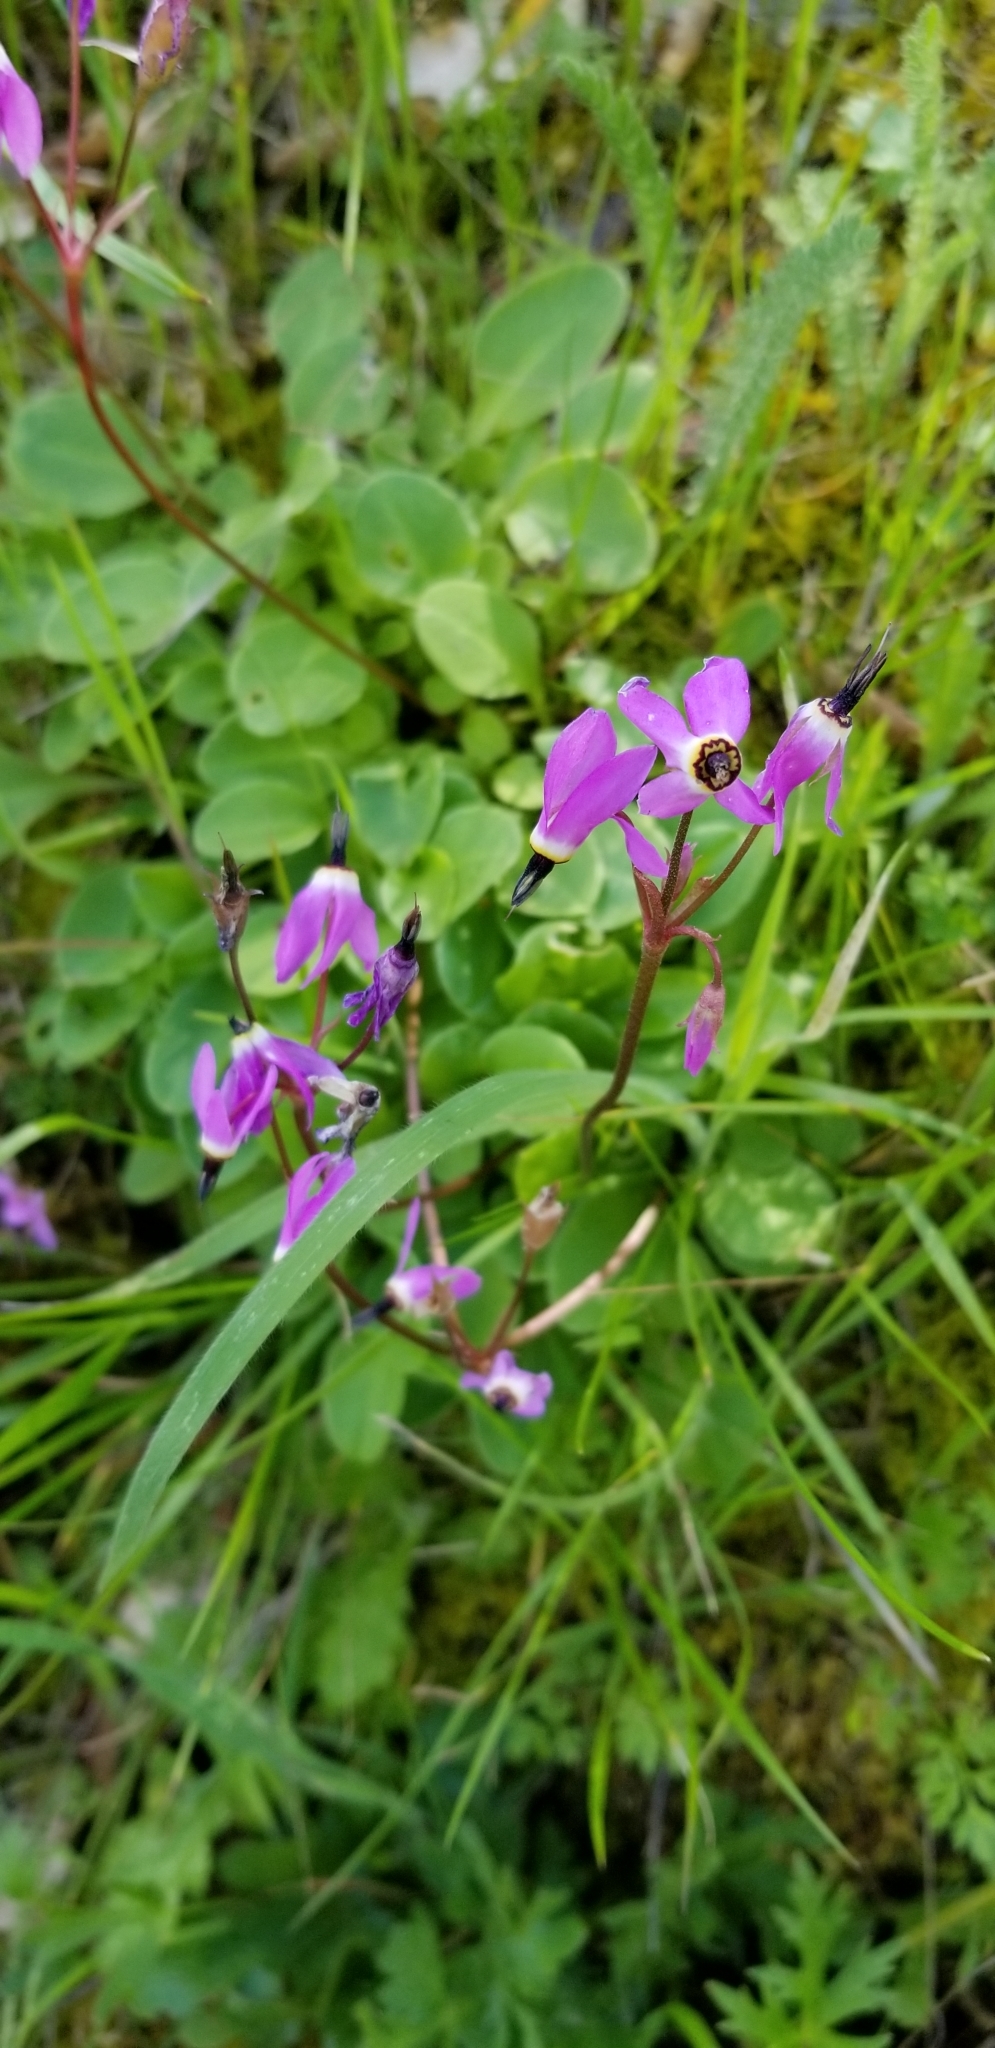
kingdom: Plantae
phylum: Tracheophyta
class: Magnoliopsida
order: Ericales
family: Primulaceae
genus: Dodecatheon
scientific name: Dodecatheon hendersonii
